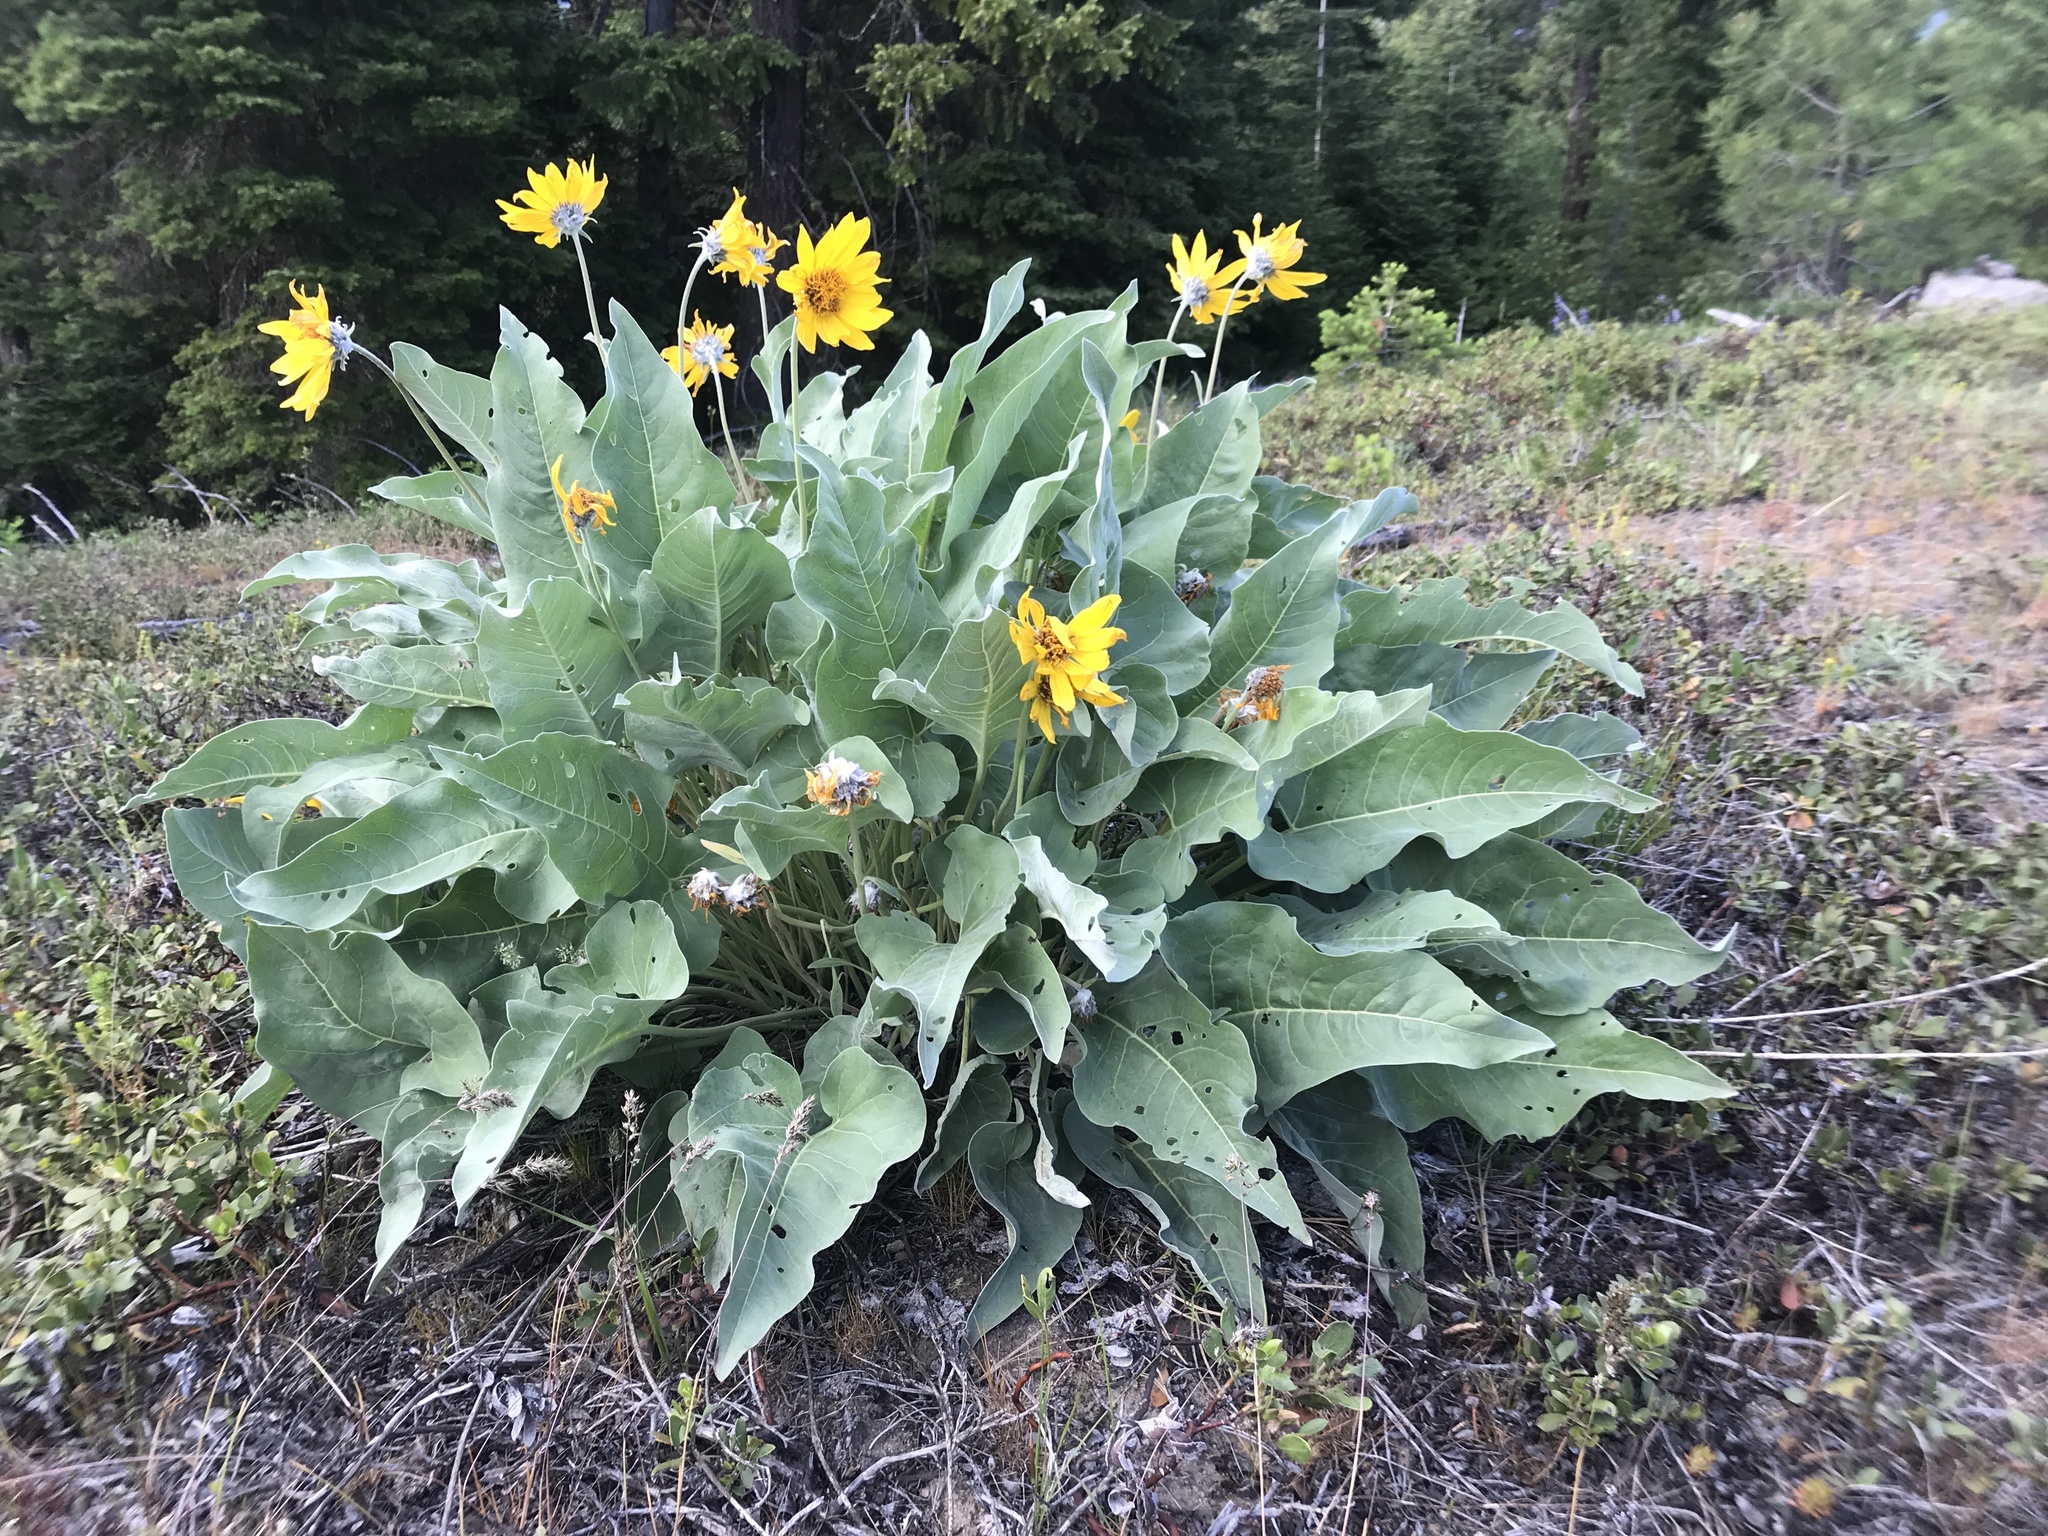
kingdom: Plantae
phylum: Tracheophyta
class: Magnoliopsida
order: Asterales
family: Asteraceae
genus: Wyethia
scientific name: Wyethia sagittata
